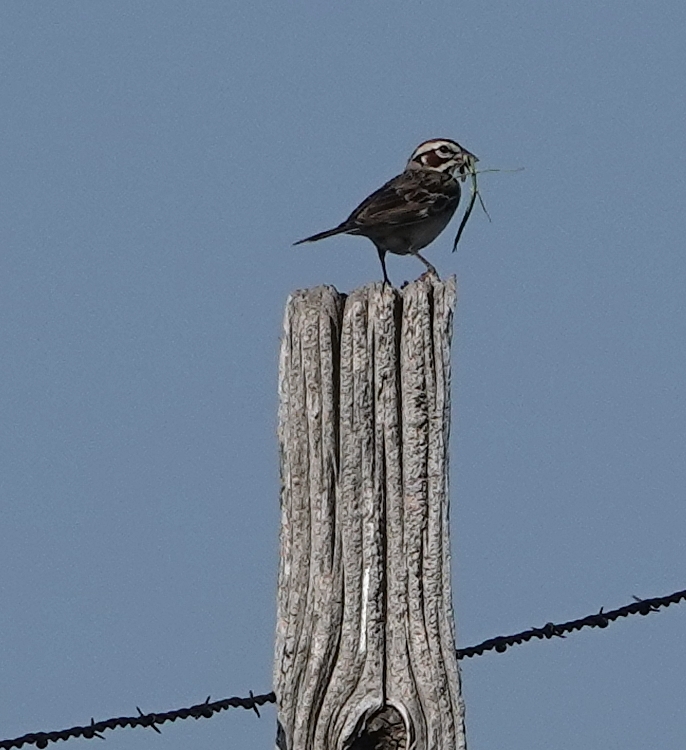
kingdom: Animalia
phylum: Chordata
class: Aves
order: Passeriformes
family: Passerellidae
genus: Chondestes
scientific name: Chondestes grammacus
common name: Lark sparrow
